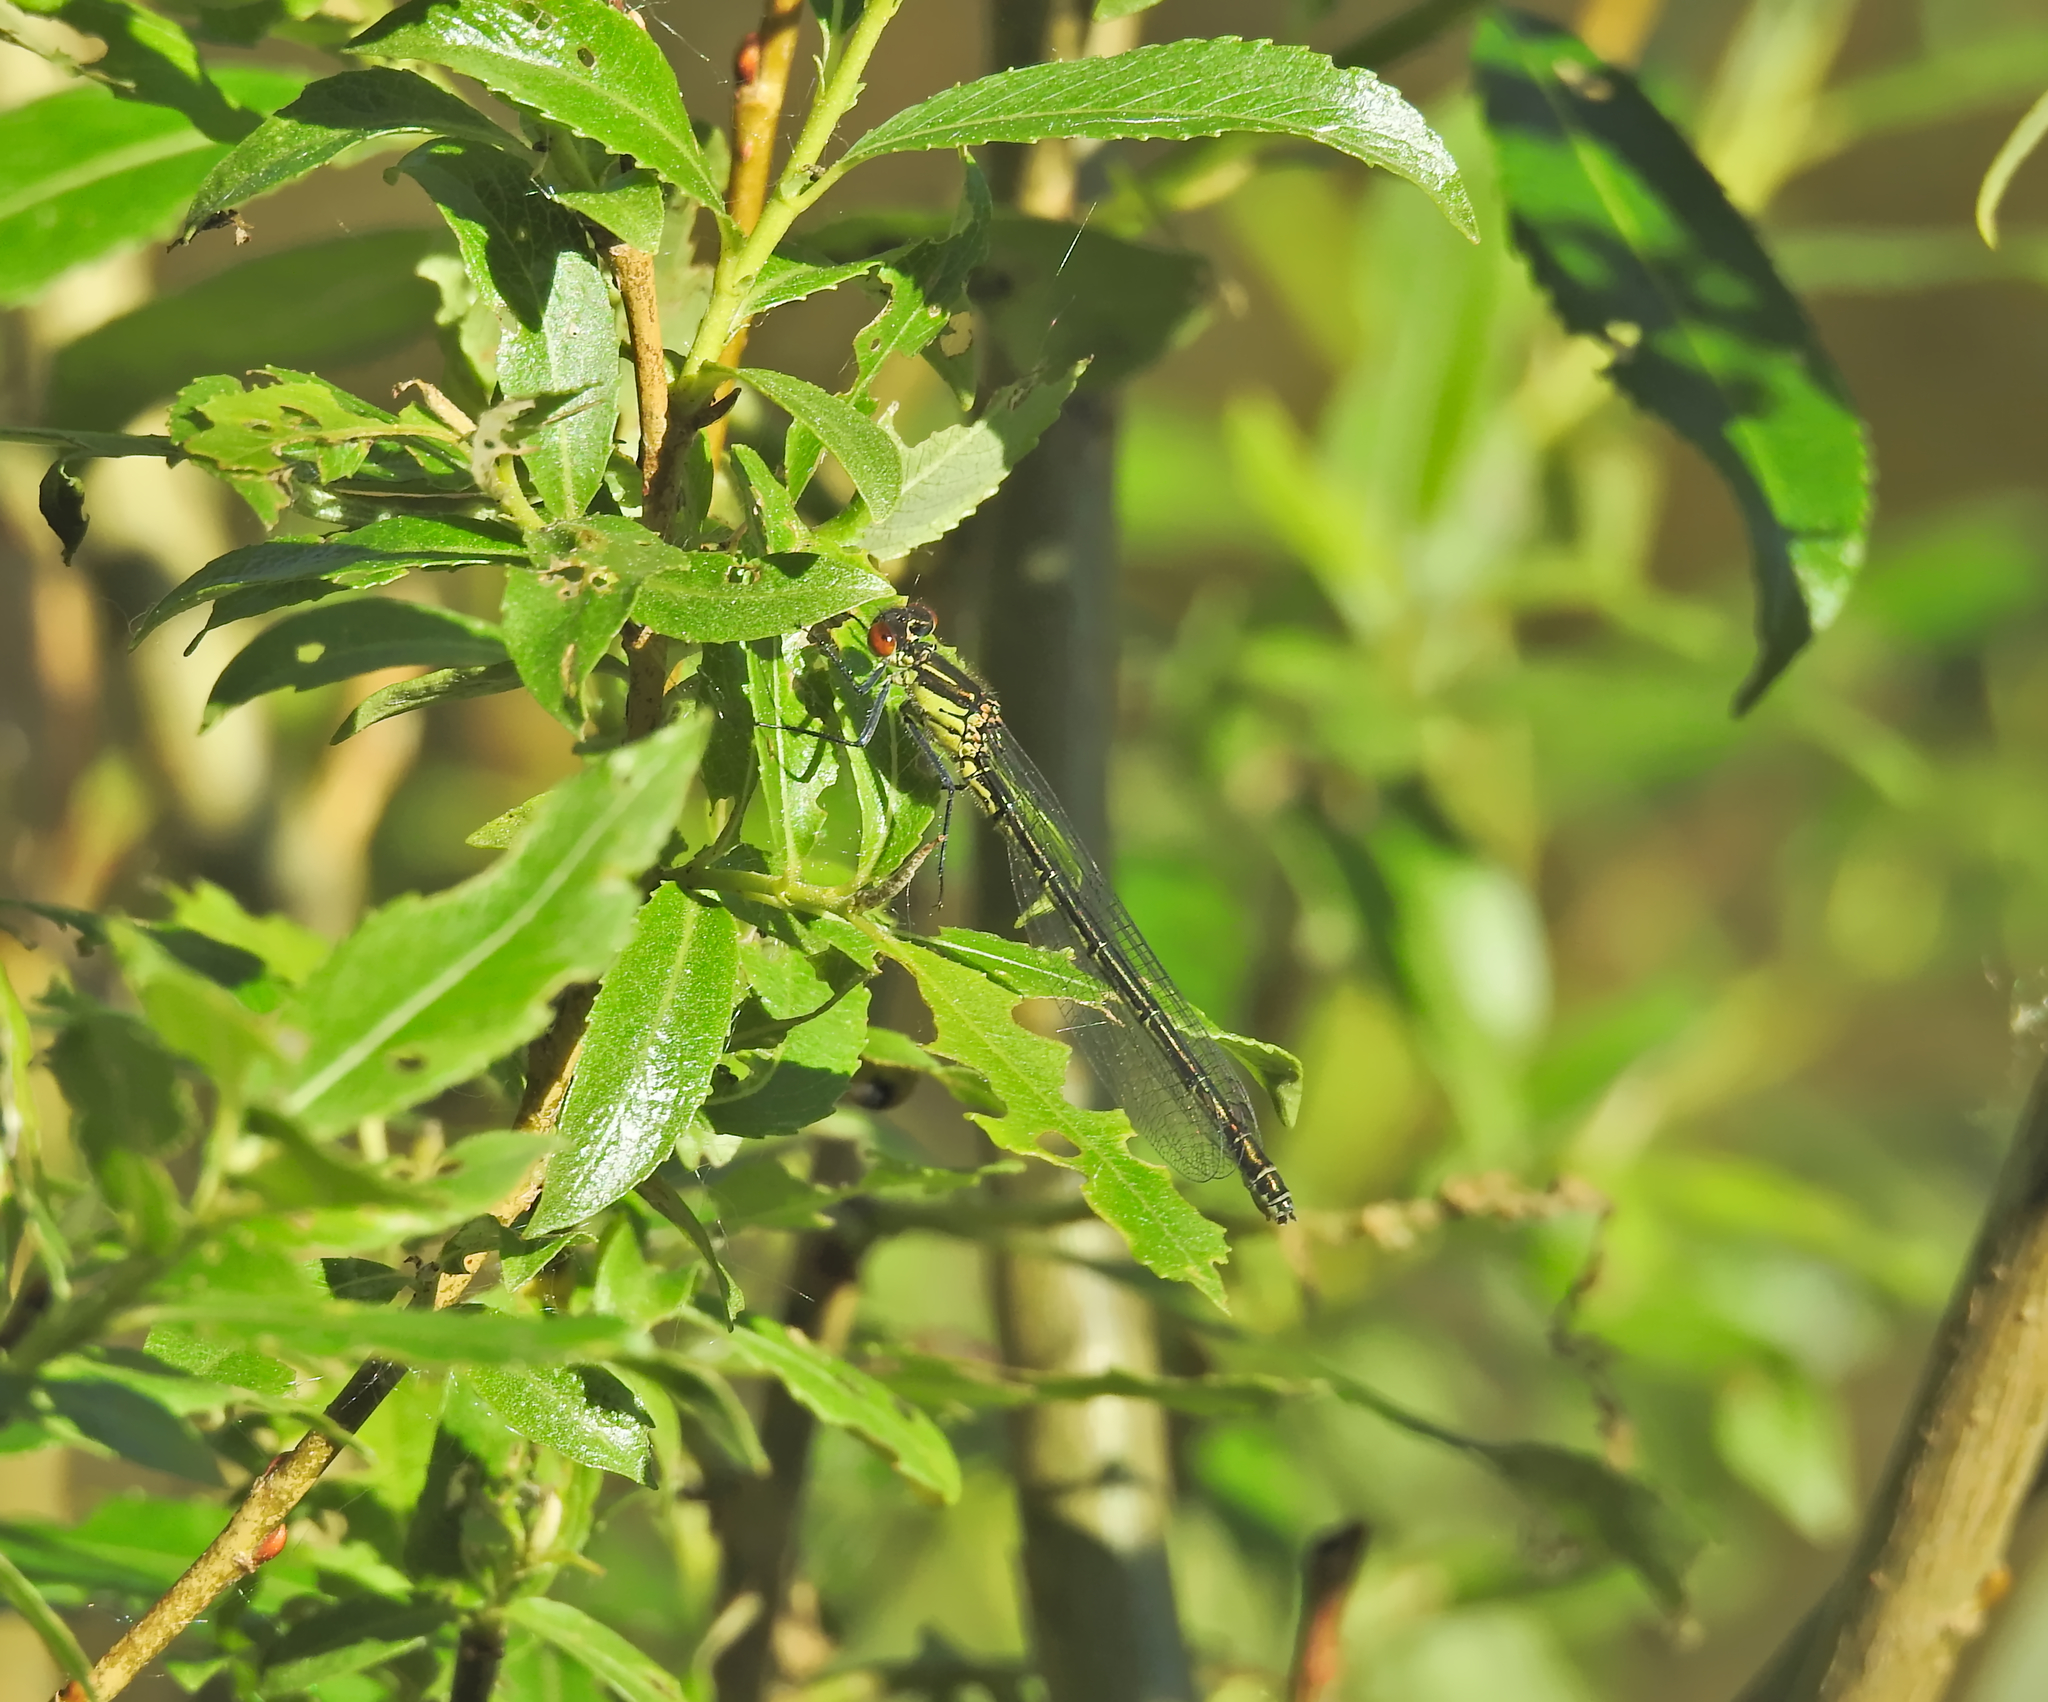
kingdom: Animalia
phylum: Arthropoda
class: Insecta
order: Odonata
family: Coenagrionidae
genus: Erythromma
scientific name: Erythromma najas
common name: Red-eyed damselfly
